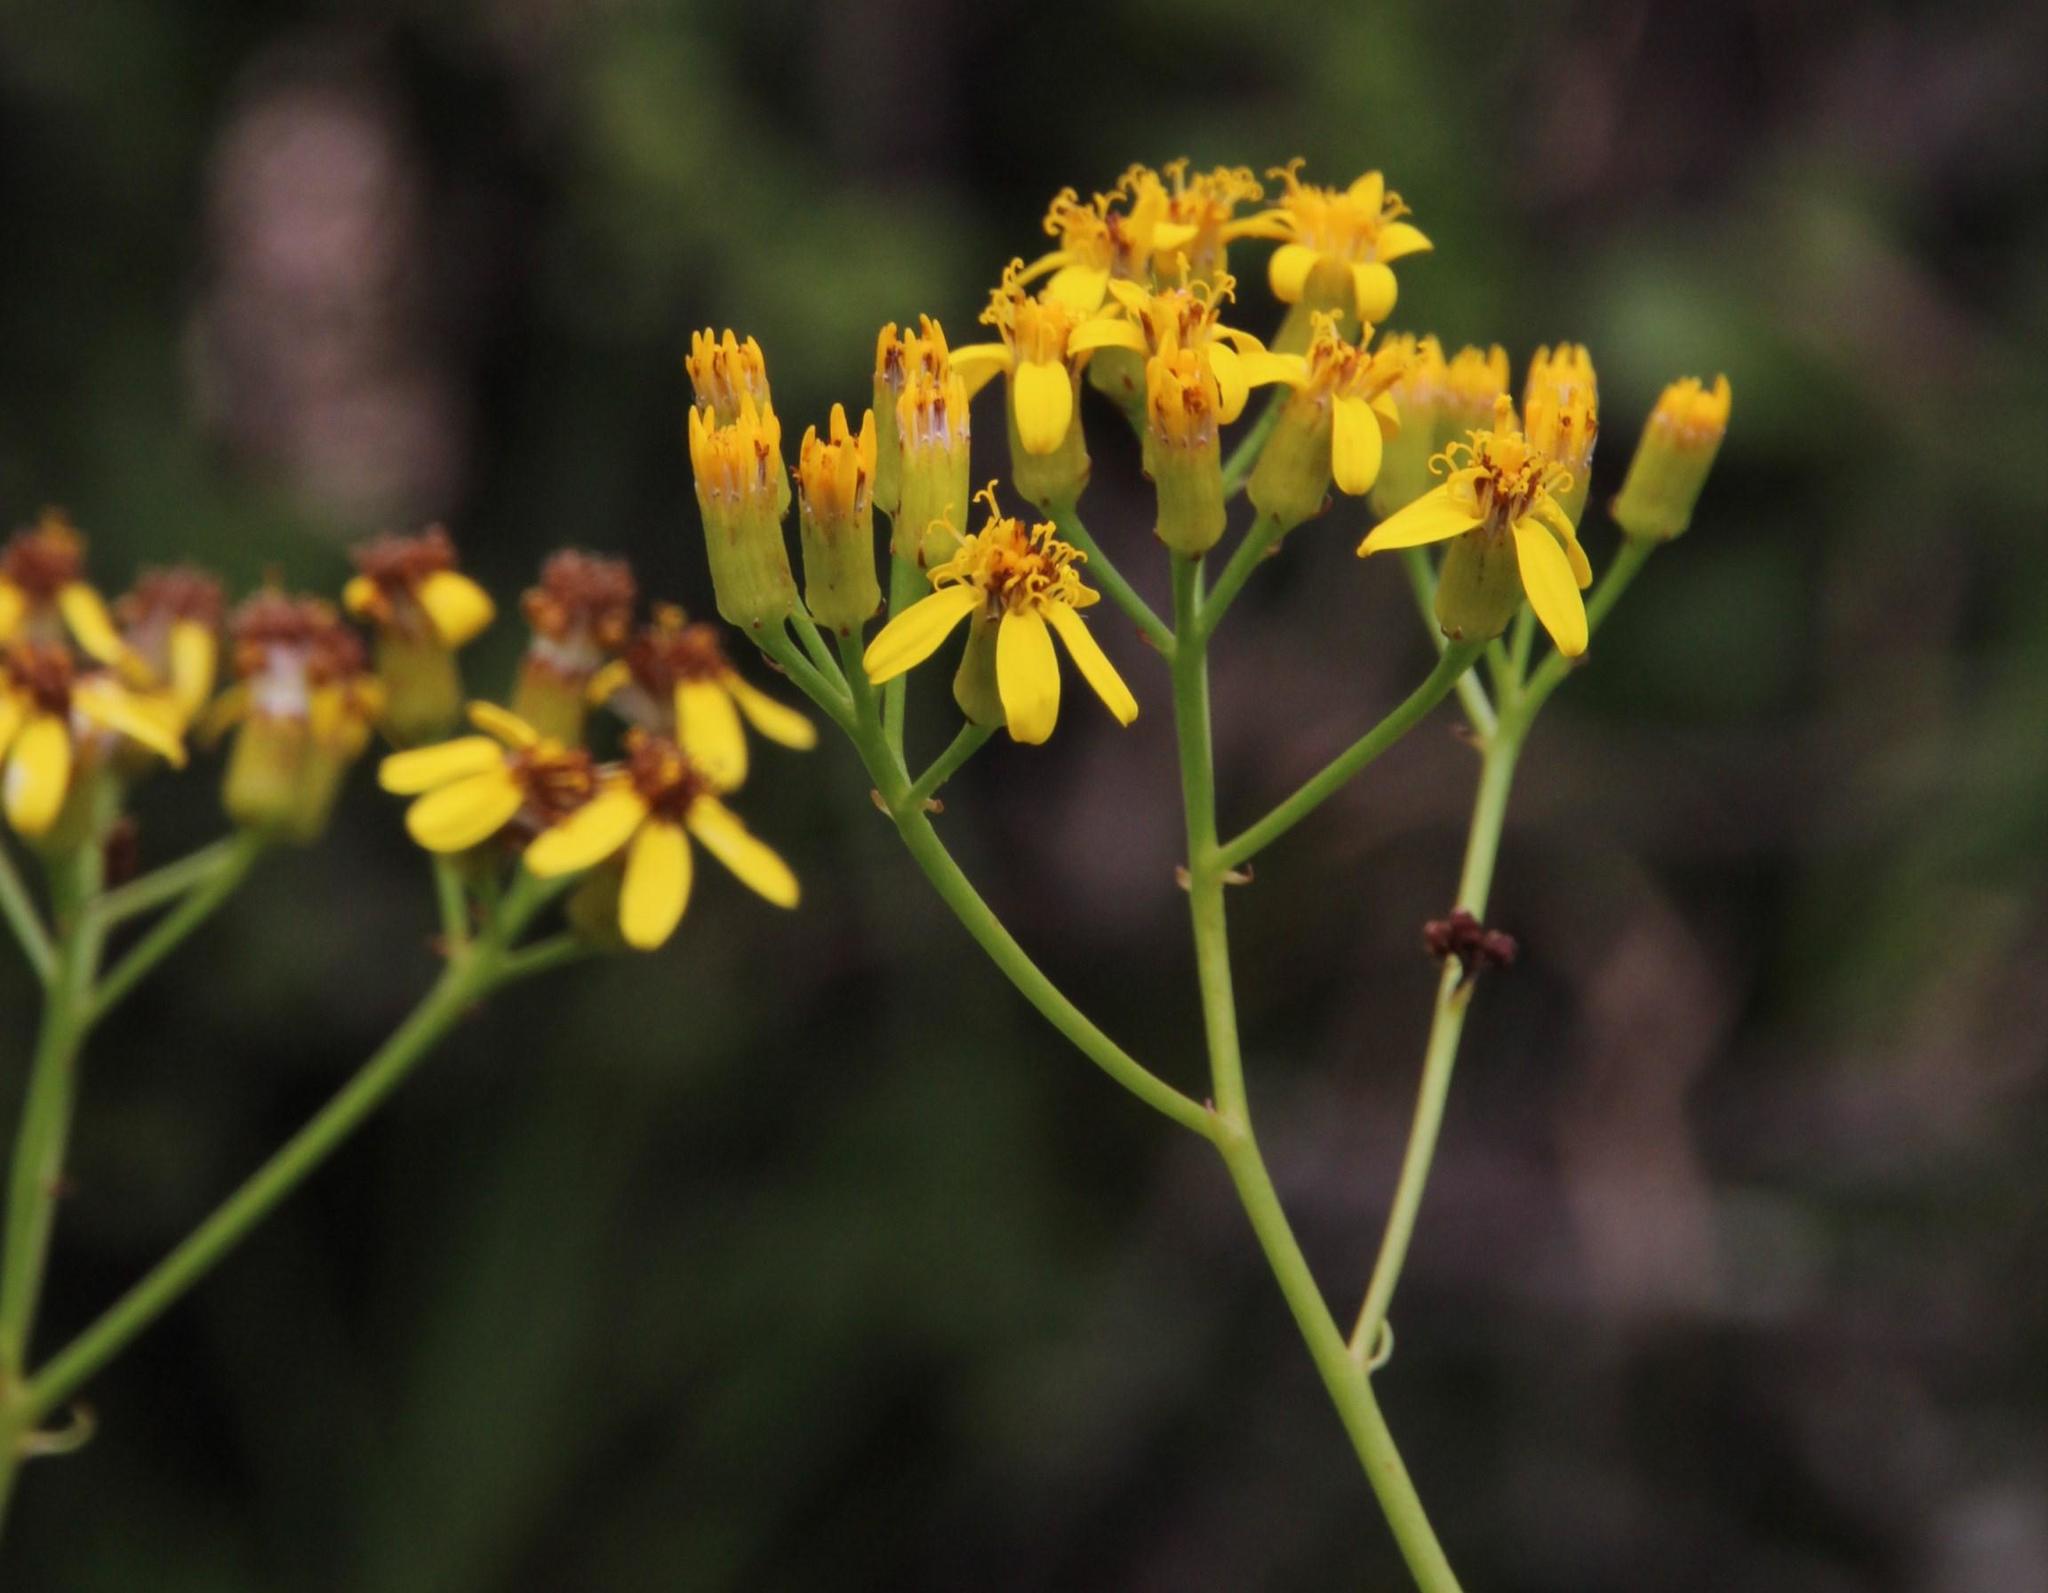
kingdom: Plantae
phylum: Tracheophyta
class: Magnoliopsida
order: Asterales
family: Asteraceae
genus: Senecio
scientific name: Senecio linifolius
